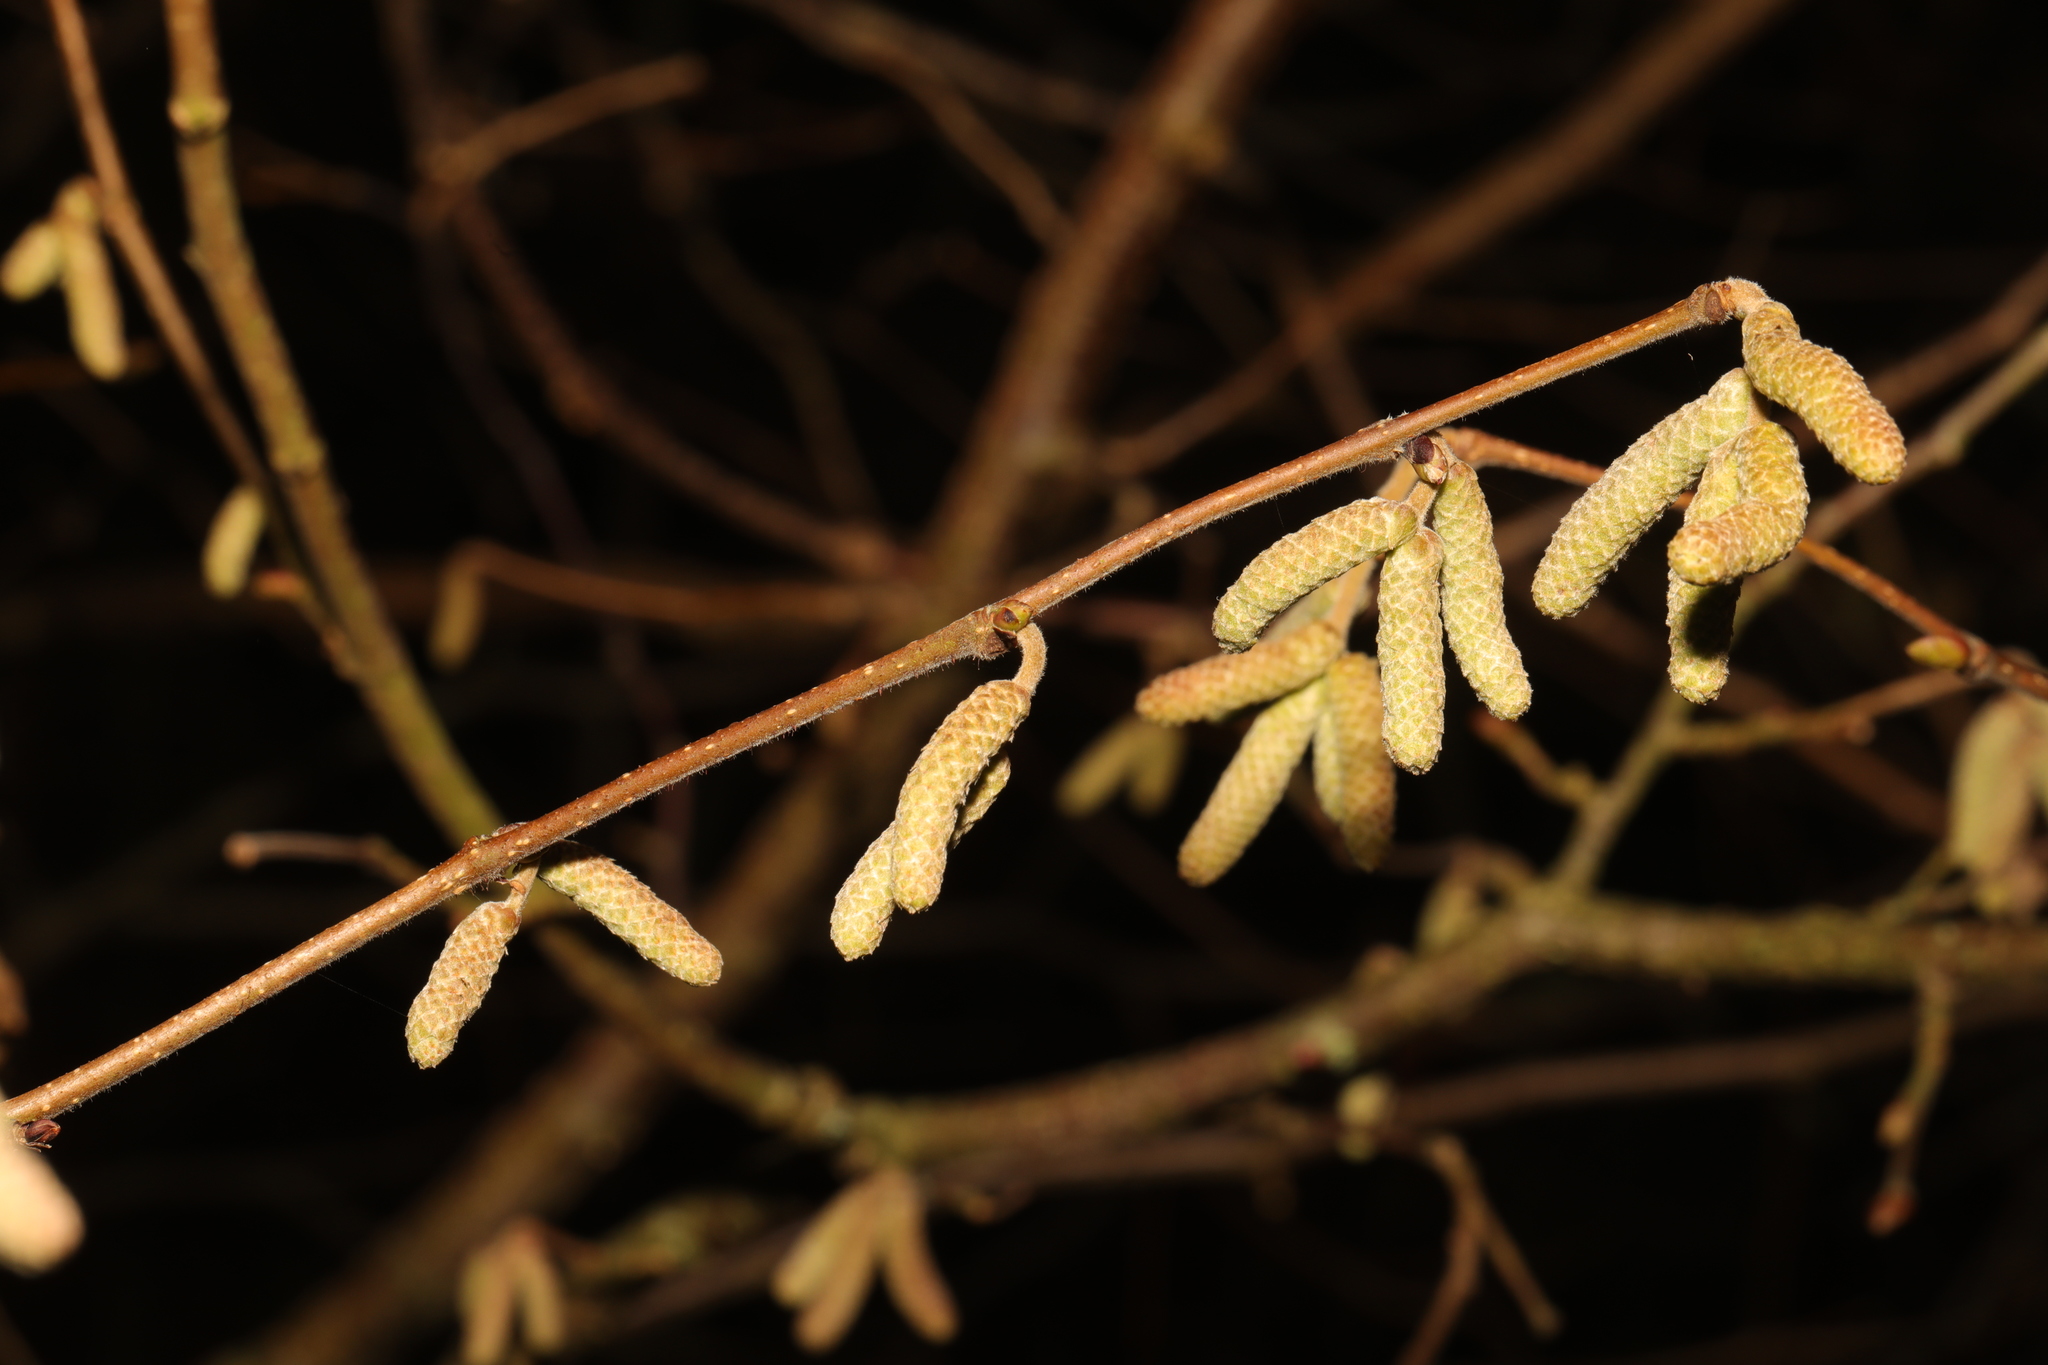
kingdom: Plantae
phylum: Tracheophyta
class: Magnoliopsida
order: Fagales
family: Betulaceae
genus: Corylus
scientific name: Corylus avellana
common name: European hazel
